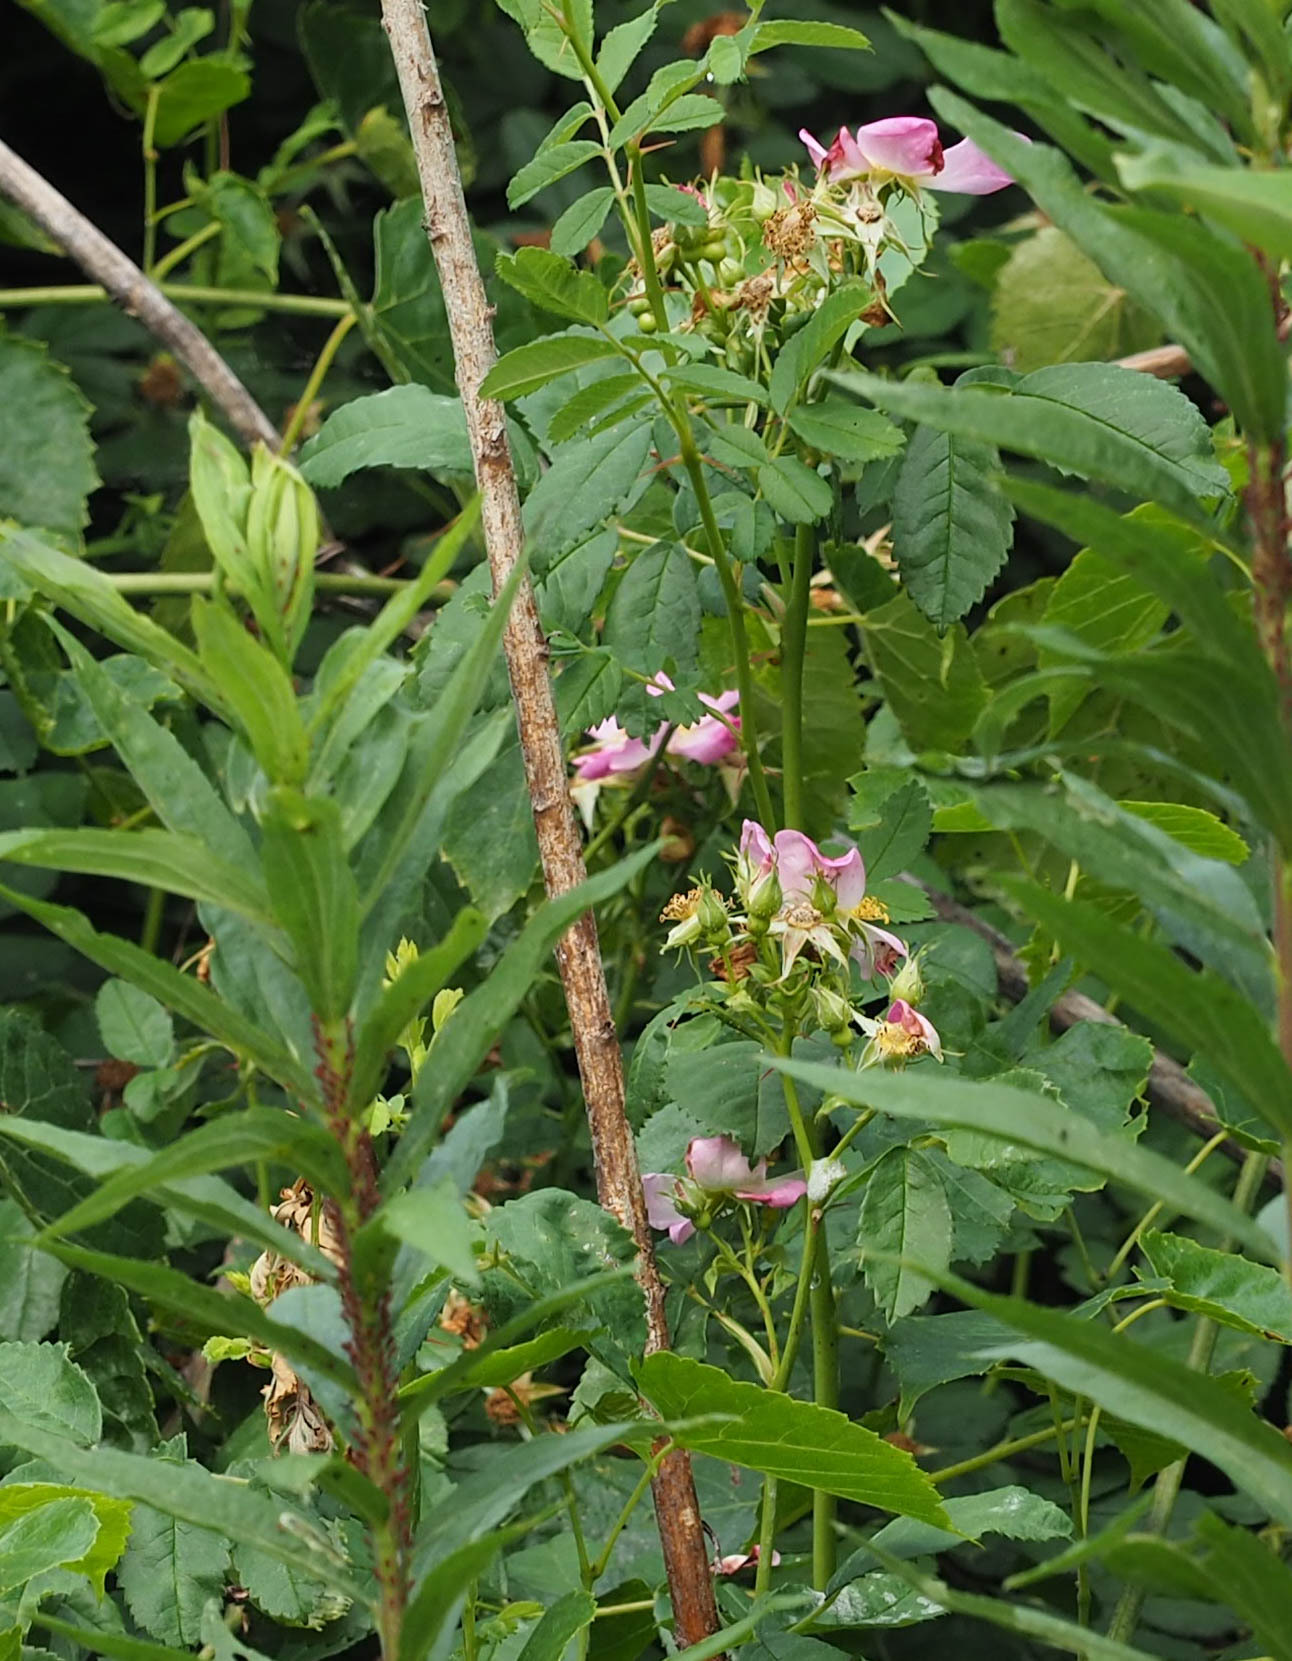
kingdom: Plantae
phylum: Tracheophyta
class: Magnoliopsida
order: Rosales
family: Rosaceae
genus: Rosa
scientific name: Rosa carolina
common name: Pasture rose
